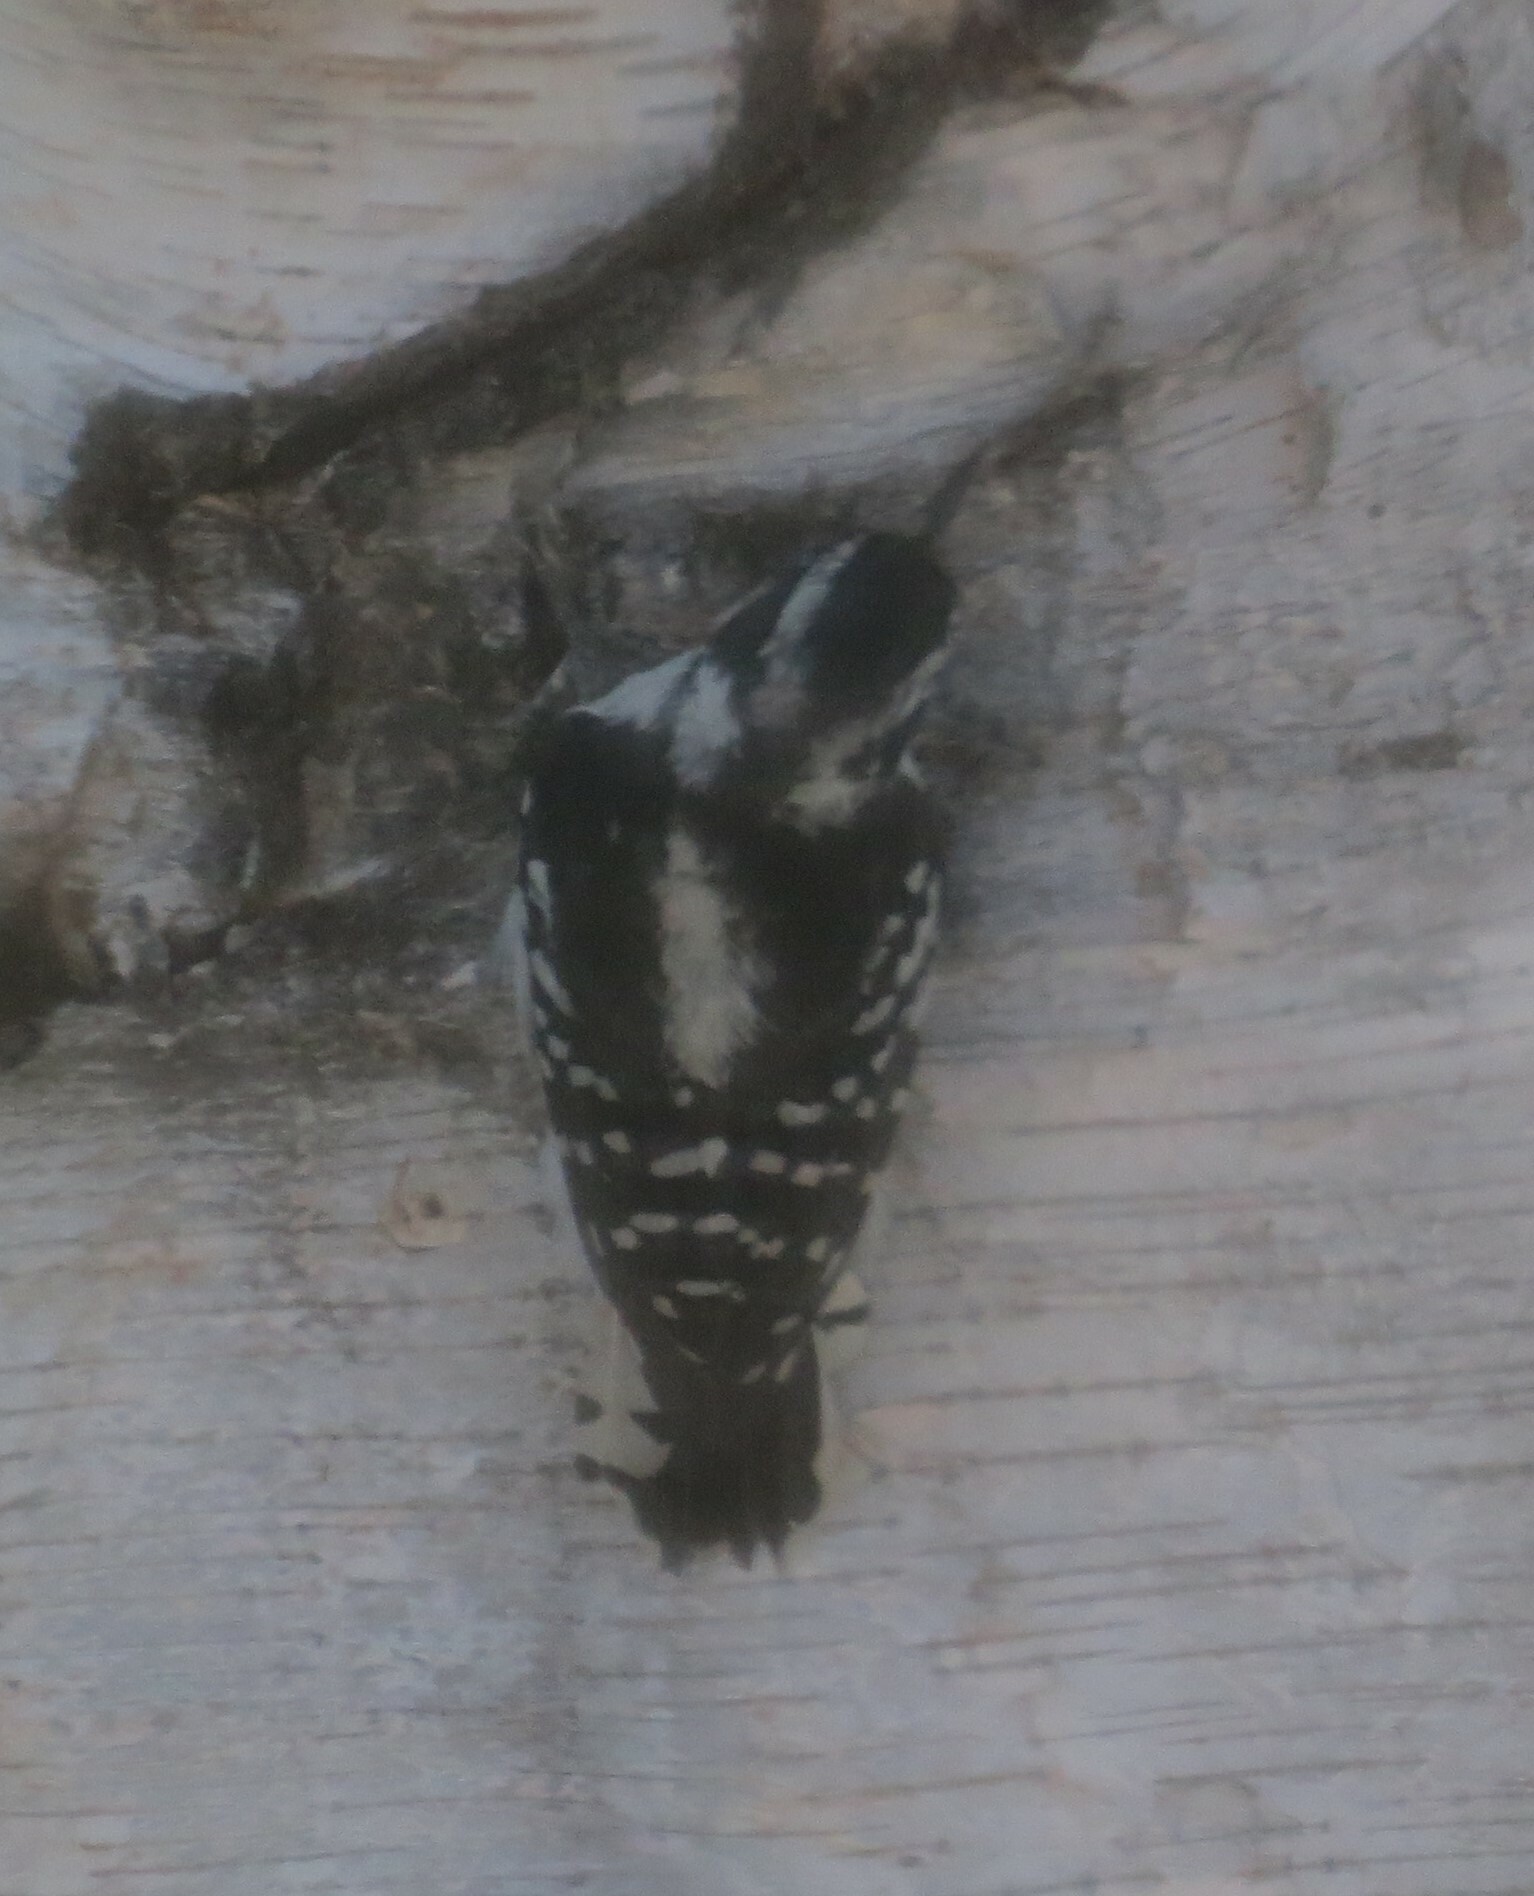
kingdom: Animalia
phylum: Chordata
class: Aves
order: Piciformes
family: Picidae
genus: Dryobates
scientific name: Dryobates pubescens
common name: Downy woodpecker
